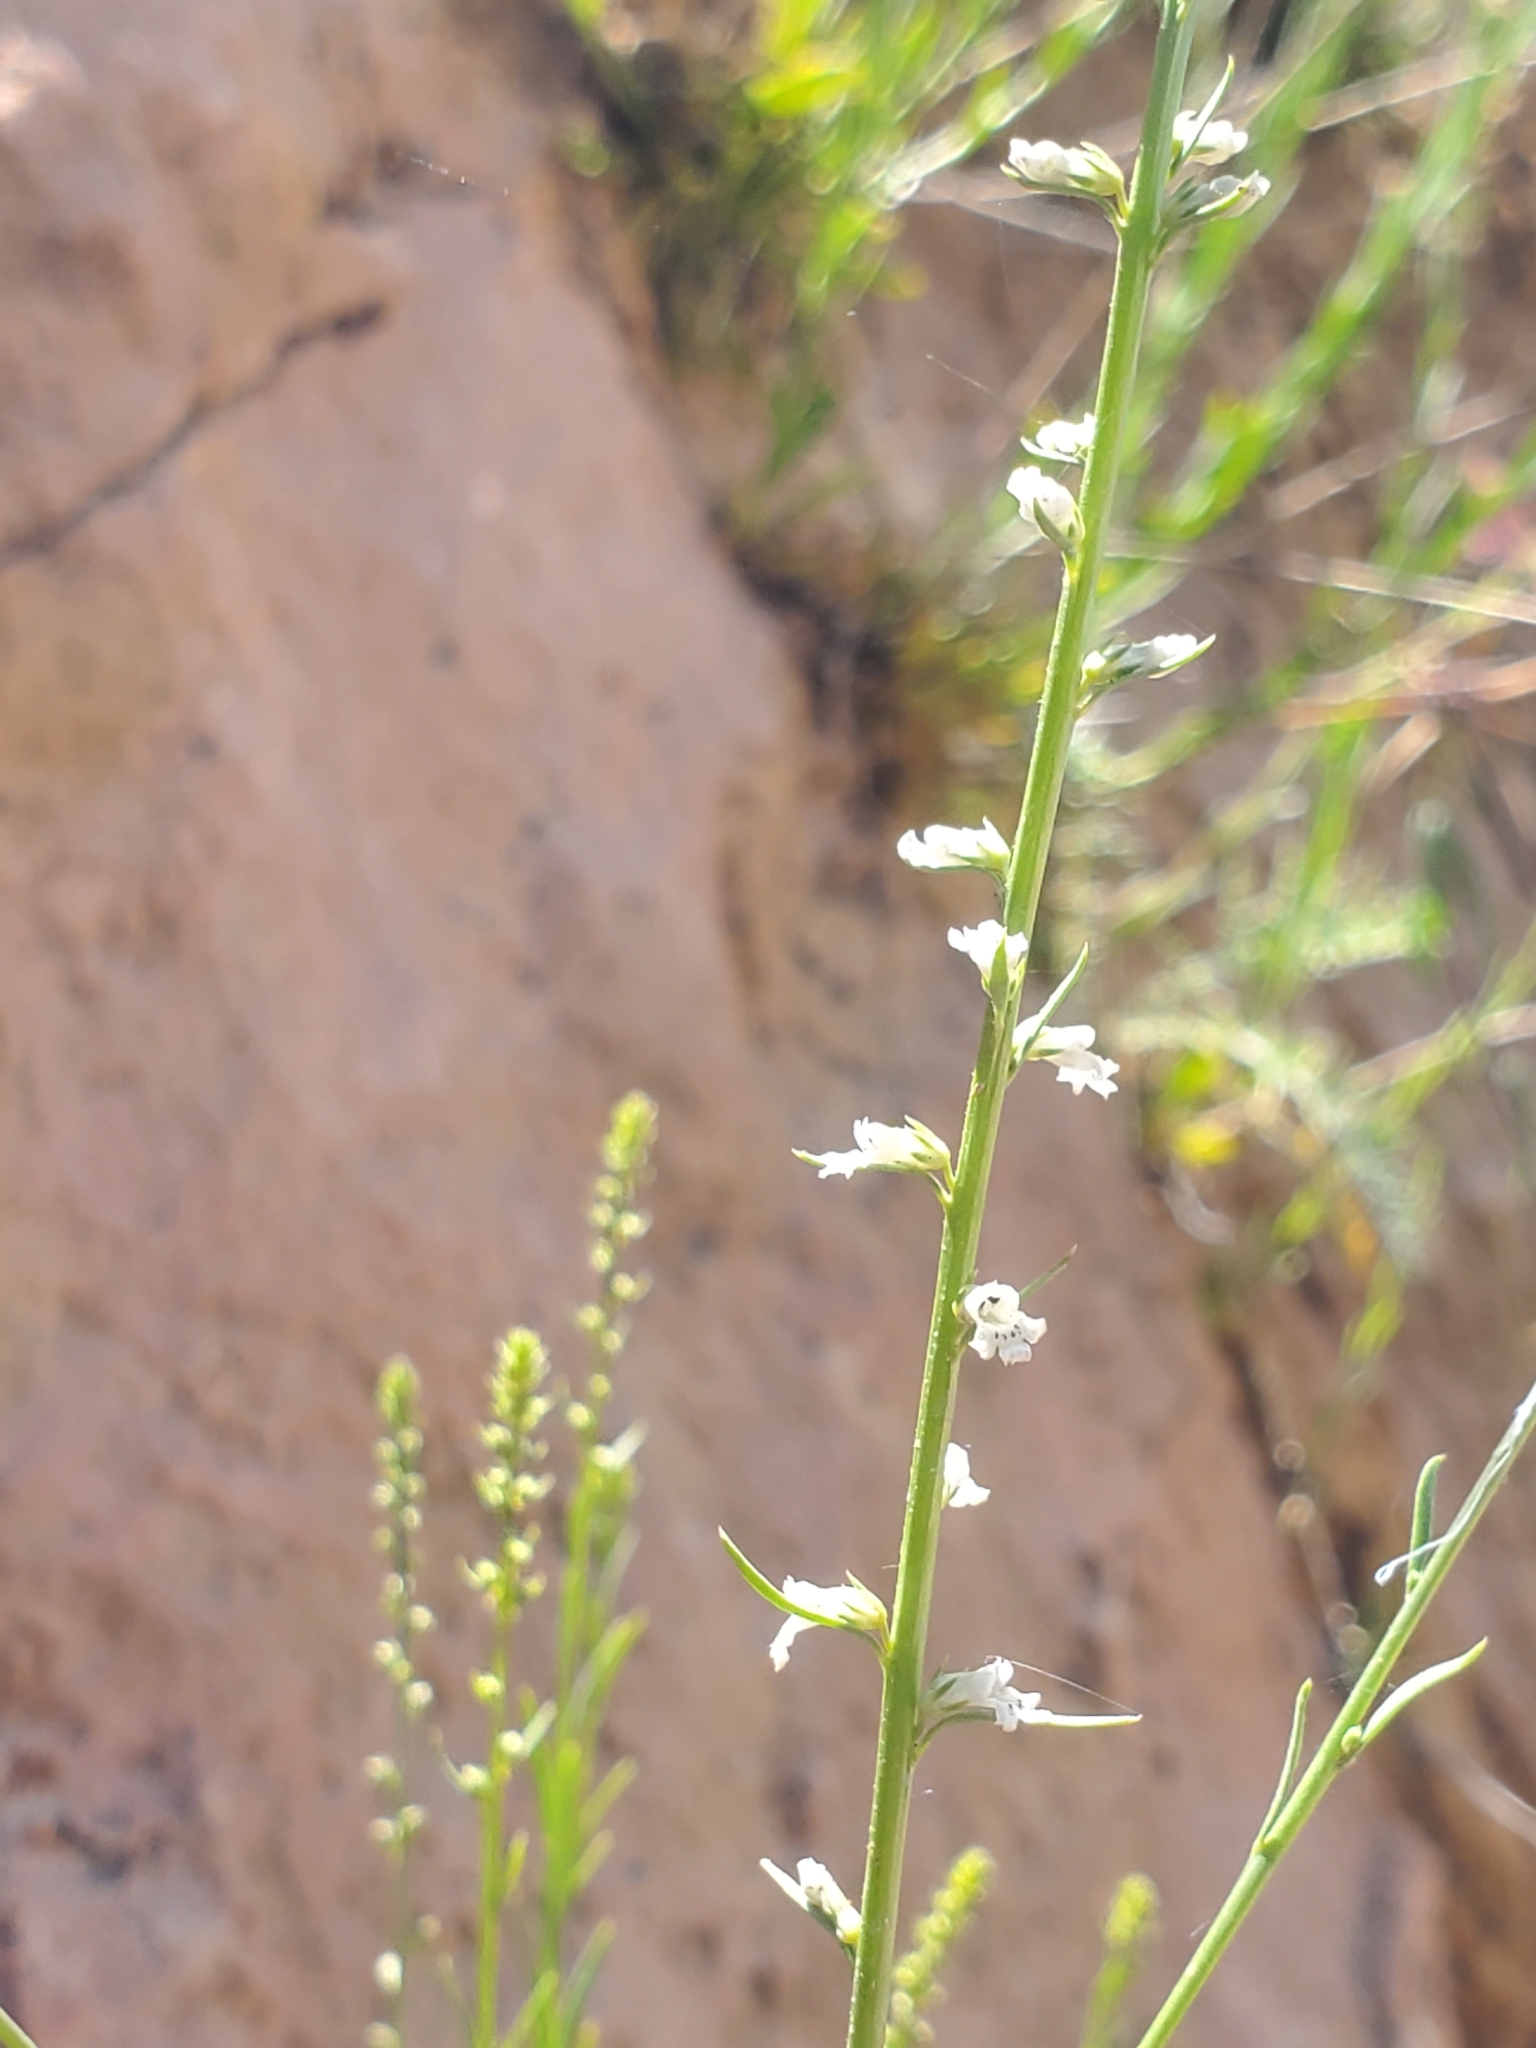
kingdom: Plantae
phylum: Tracheophyta
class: Magnoliopsida
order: Lamiales
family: Plantaginaceae
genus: Anarrhinum
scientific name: Anarrhinum forskaohlii
